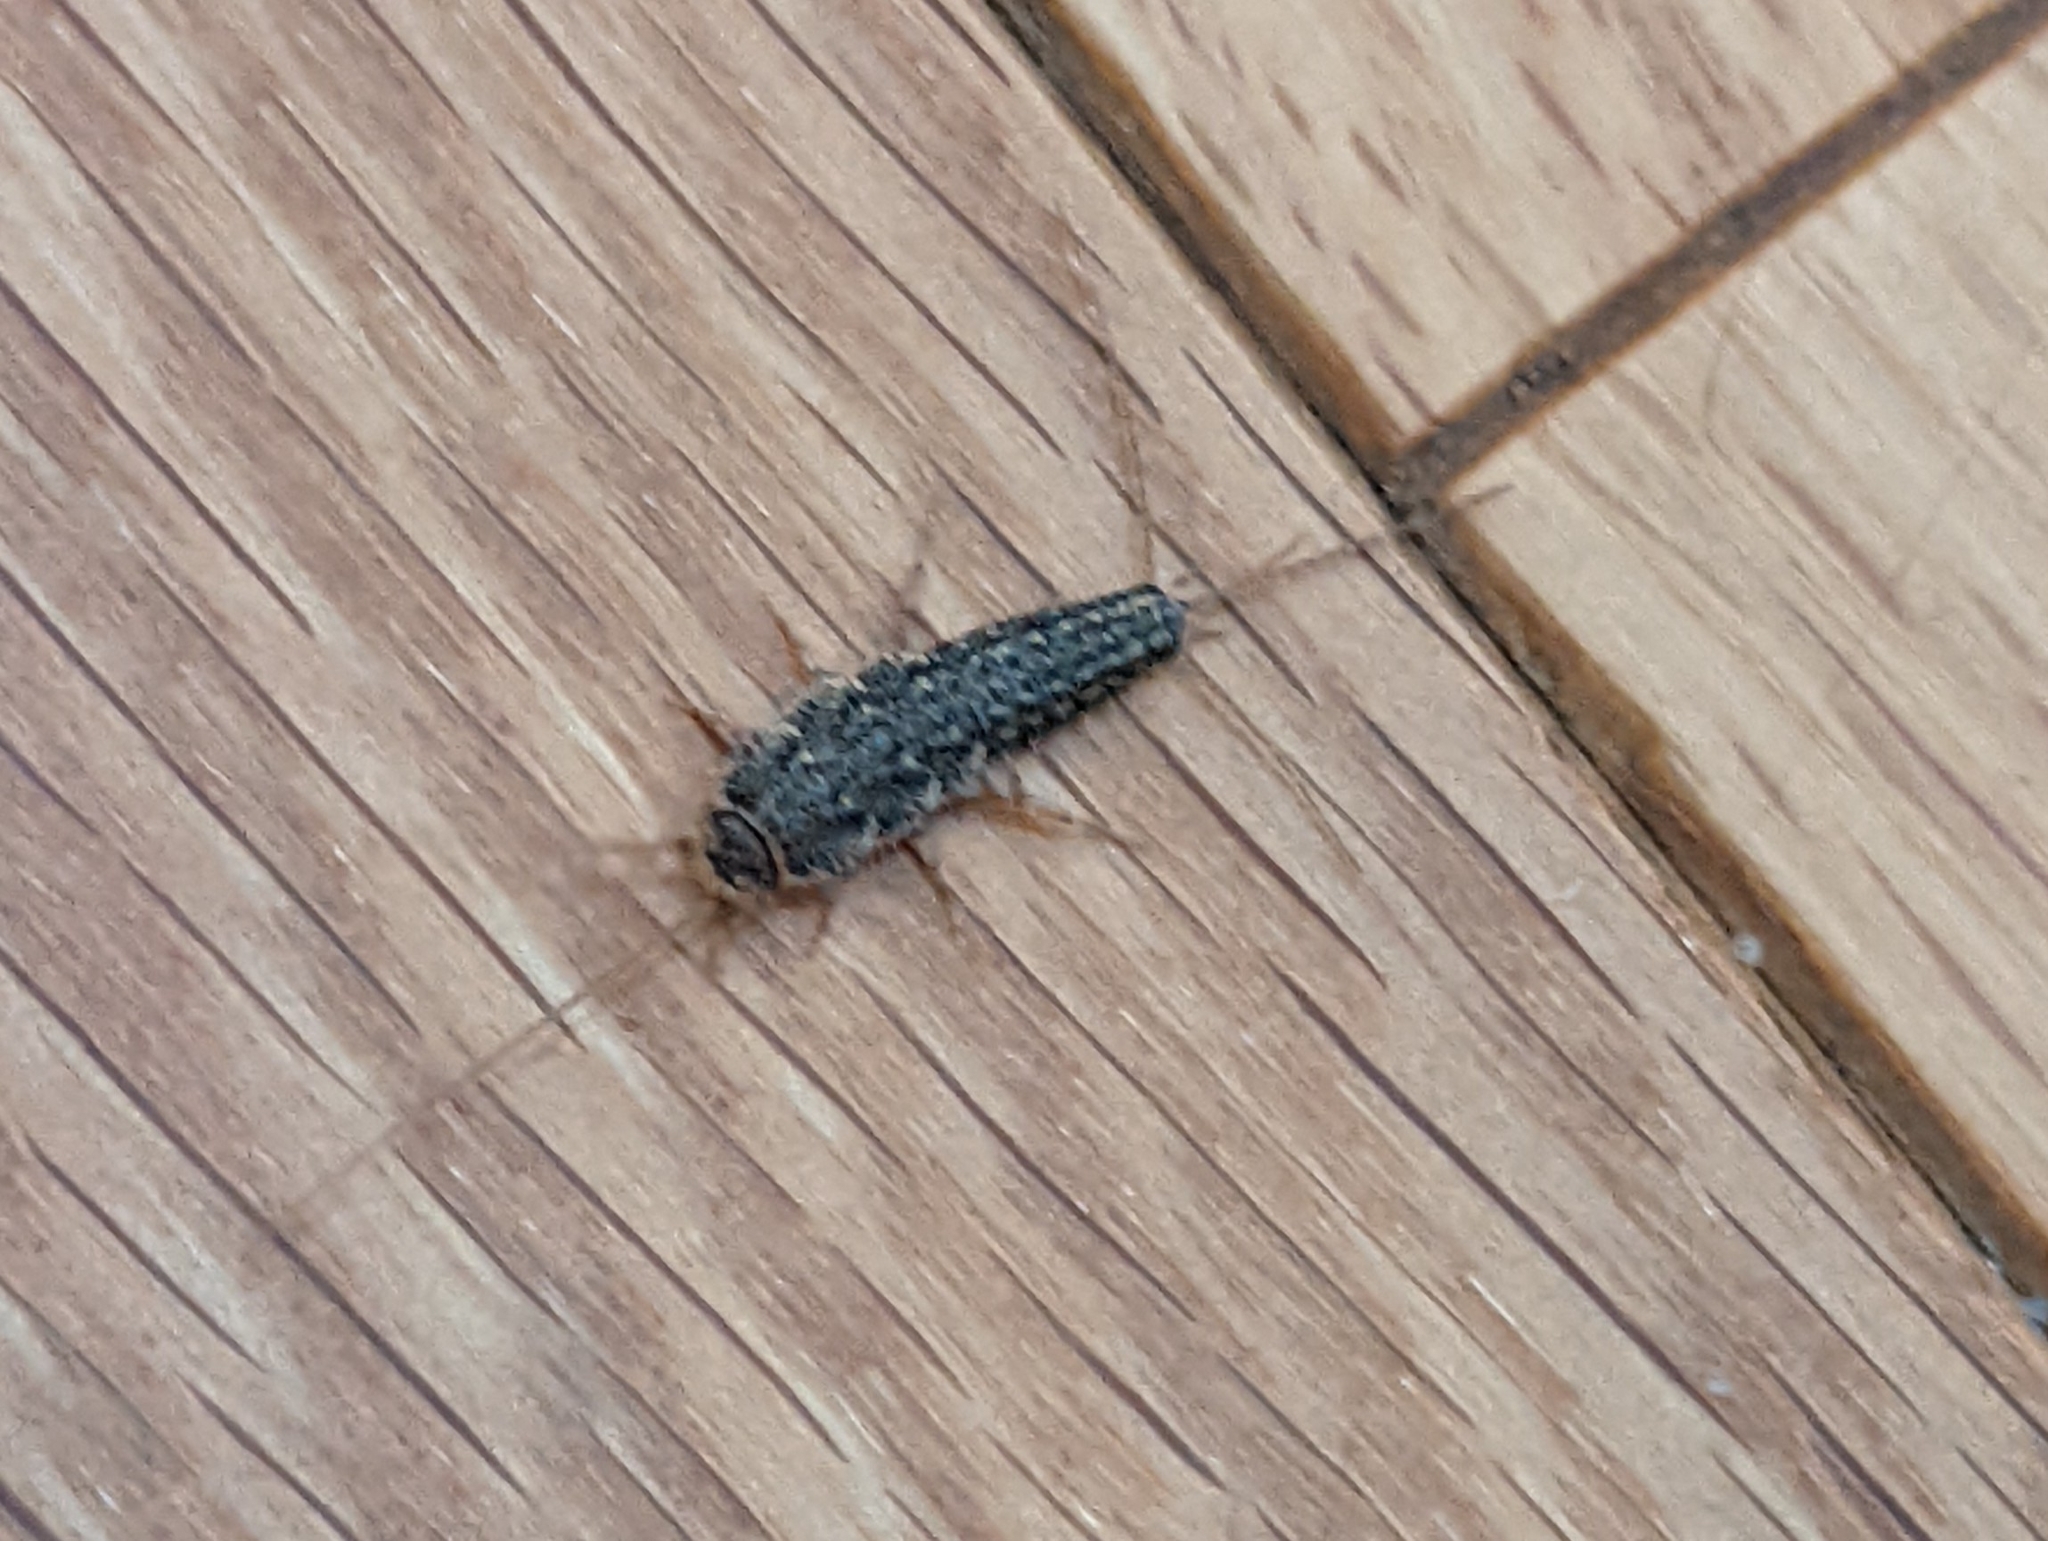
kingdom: Animalia
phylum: Arthropoda
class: Insecta
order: Zygentoma
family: Lepismatidae
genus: Ctenolepisma
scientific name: Ctenolepisma lineata
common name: Four-lined silverfish
